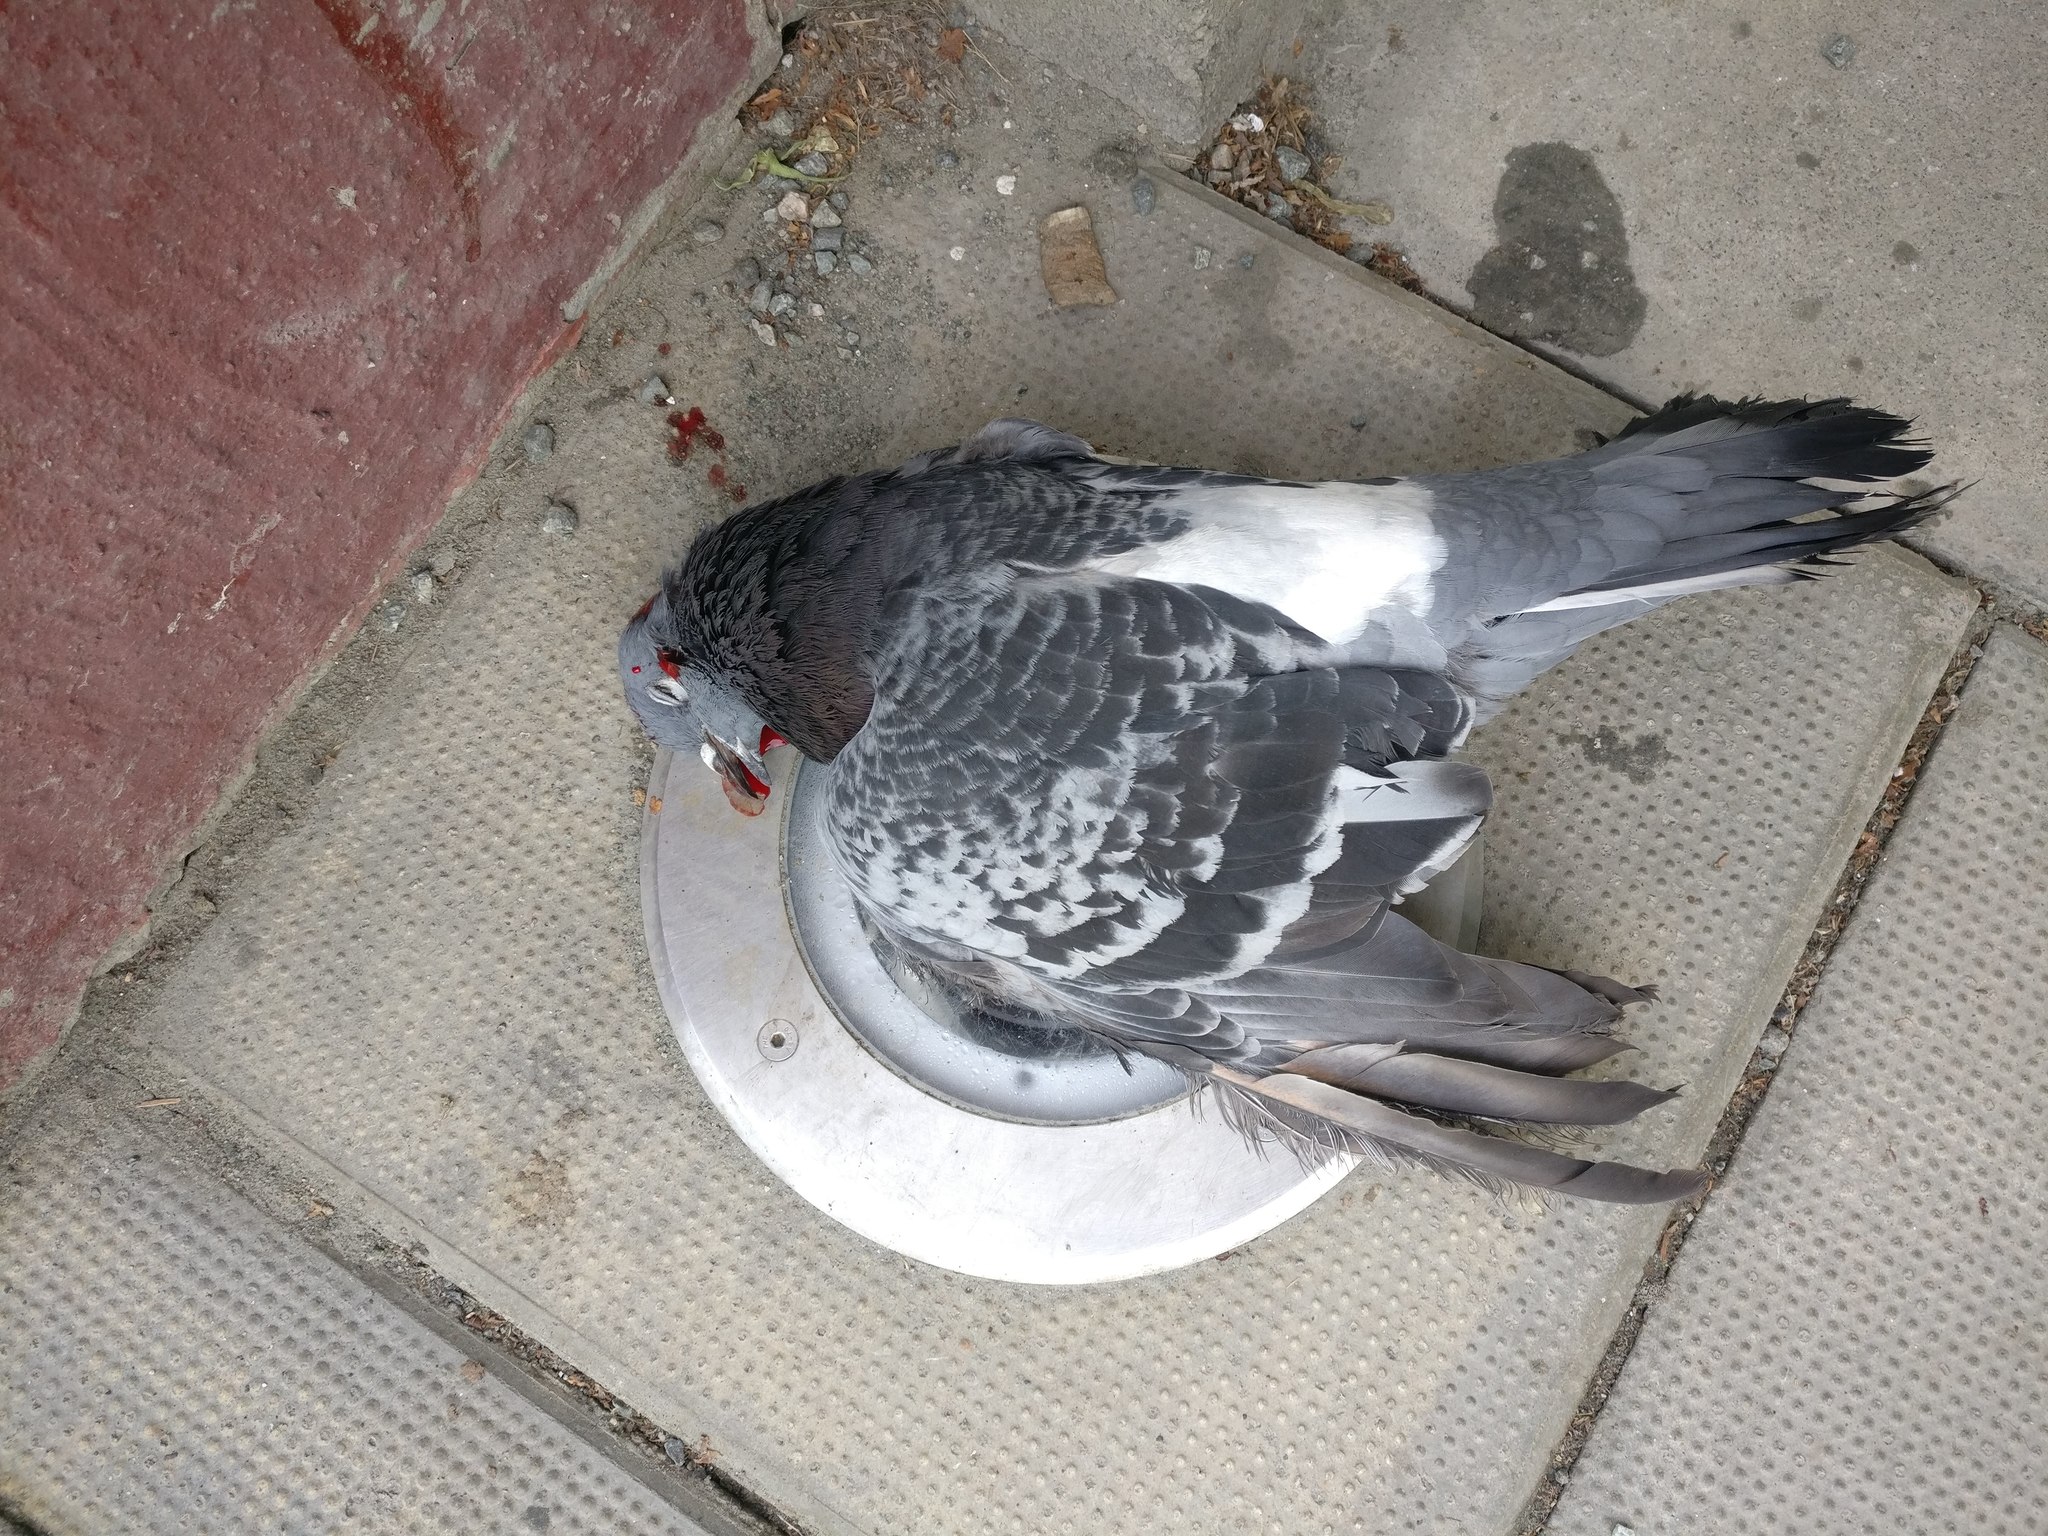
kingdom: Animalia
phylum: Chordata
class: Aves
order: Columbiformes
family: Columbidae
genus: Columba
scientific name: Columba livia
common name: Rock pigeon
